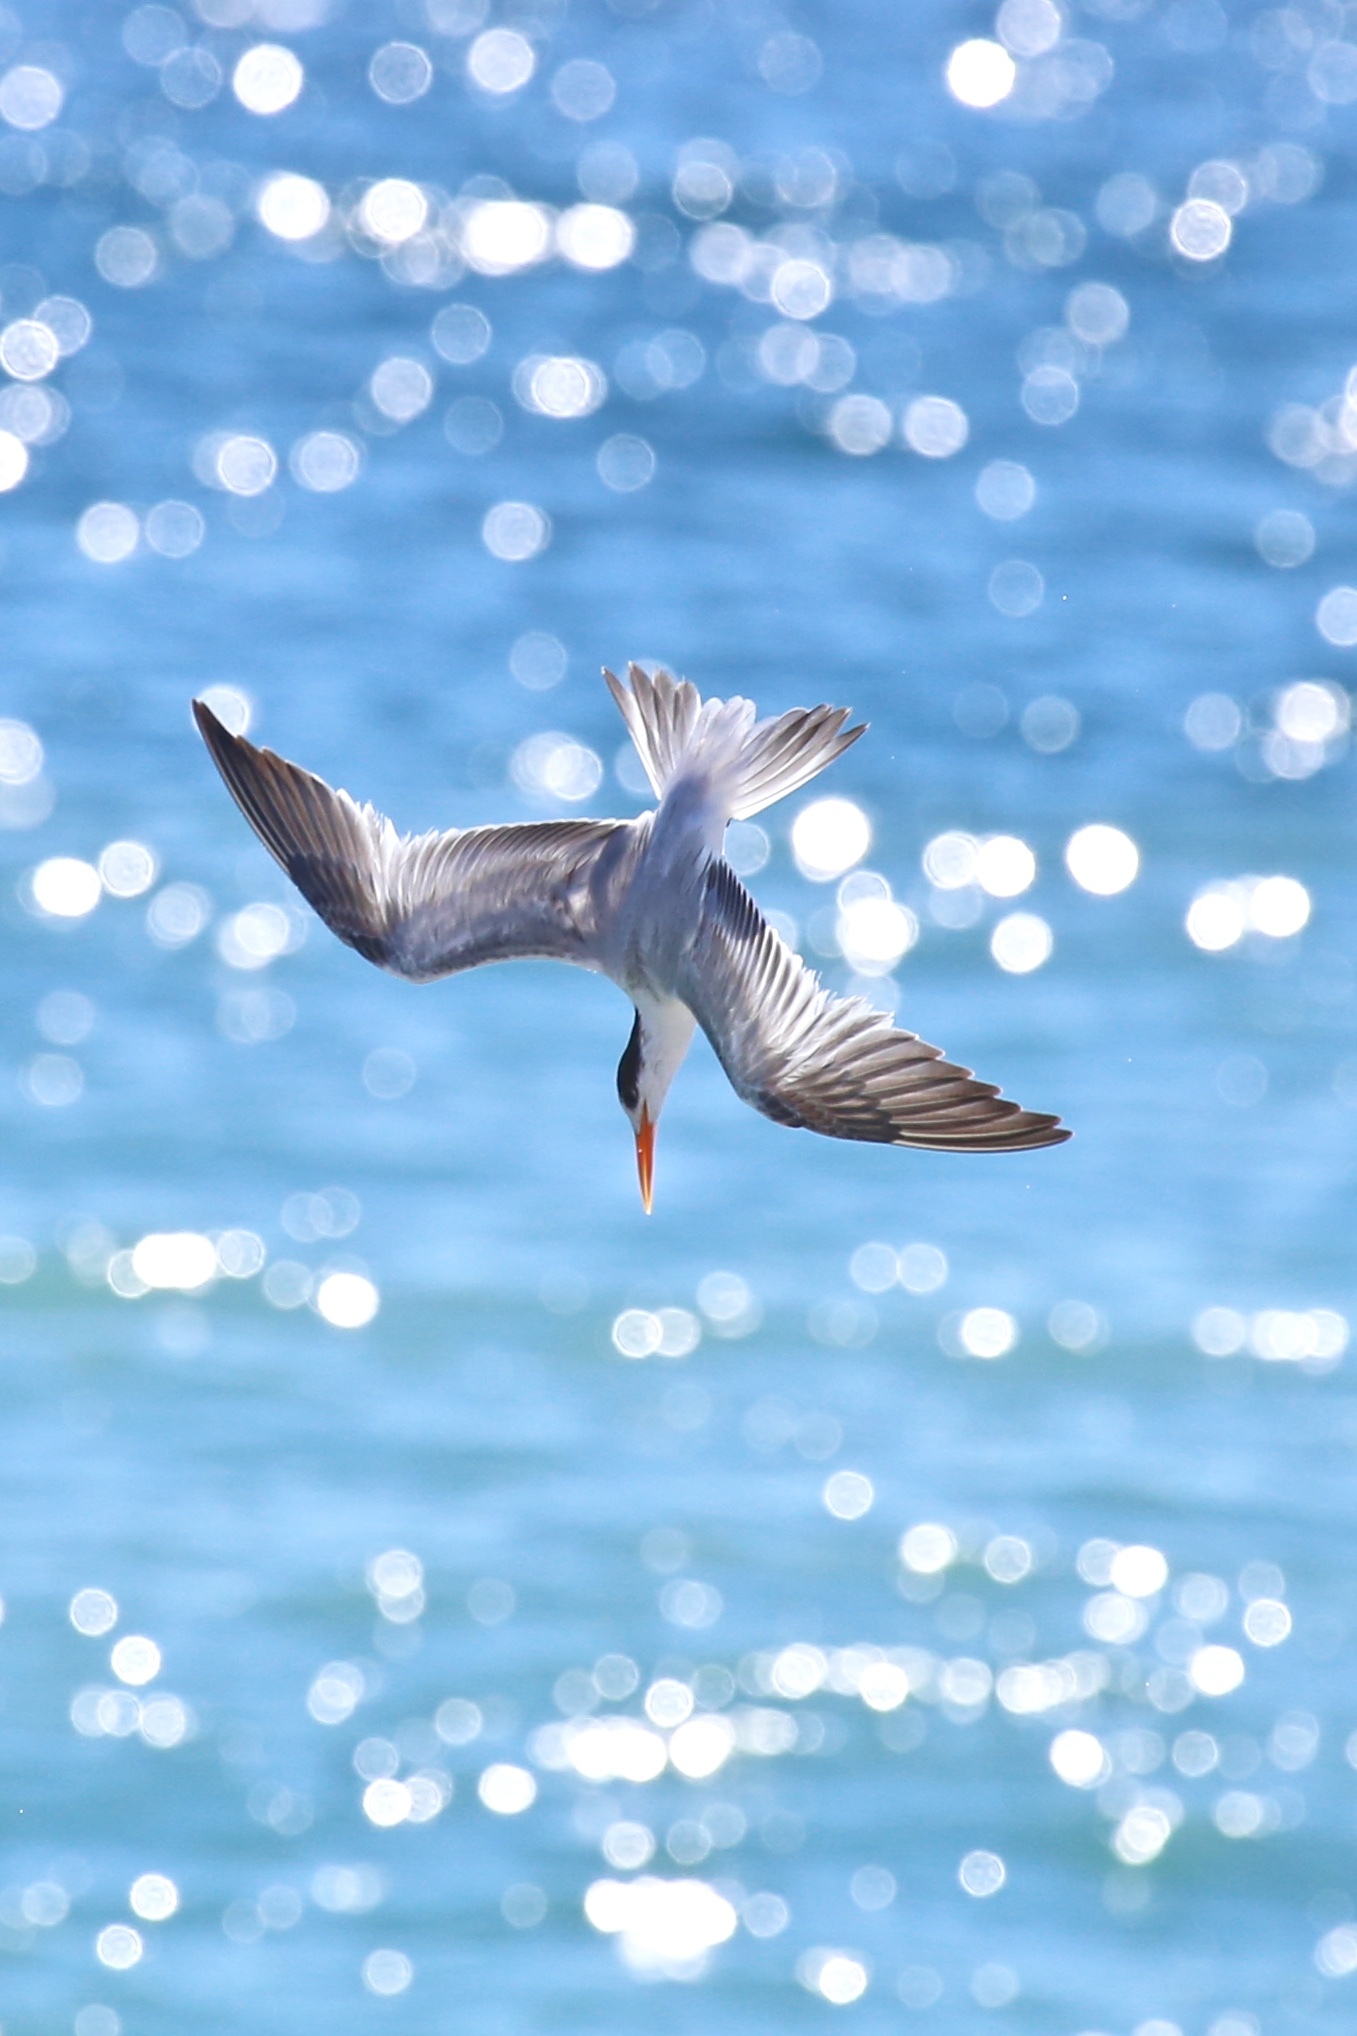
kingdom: Animalia
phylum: Chordata
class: Aves
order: Charadriiformes
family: Laridae
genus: Thalasseus
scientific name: Thalasseus maximus
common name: Royal tern
